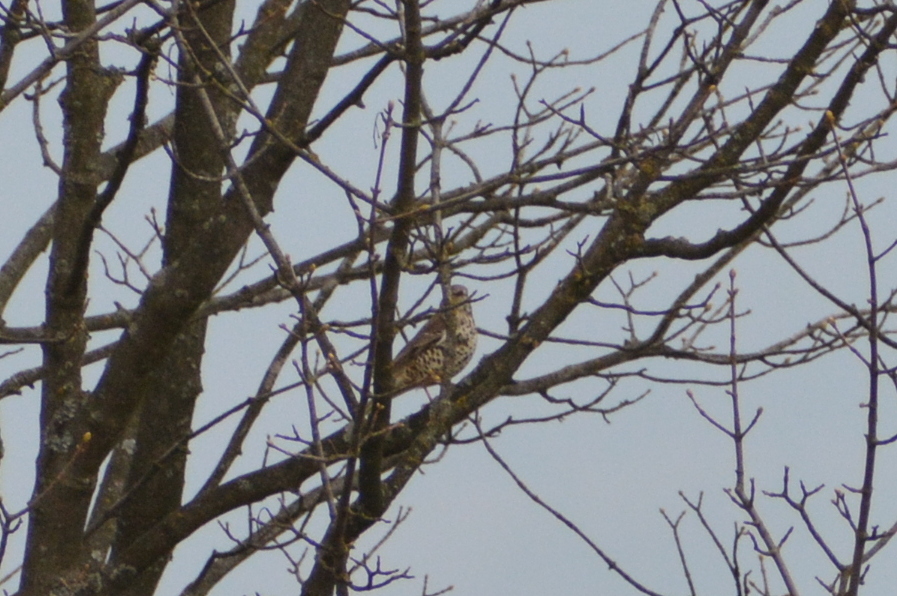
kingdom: Animalia
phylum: Chordata
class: Aves
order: Passeriformes
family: Turdidae
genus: Turdus
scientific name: Turdus viscivorus
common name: Mistle thrush
